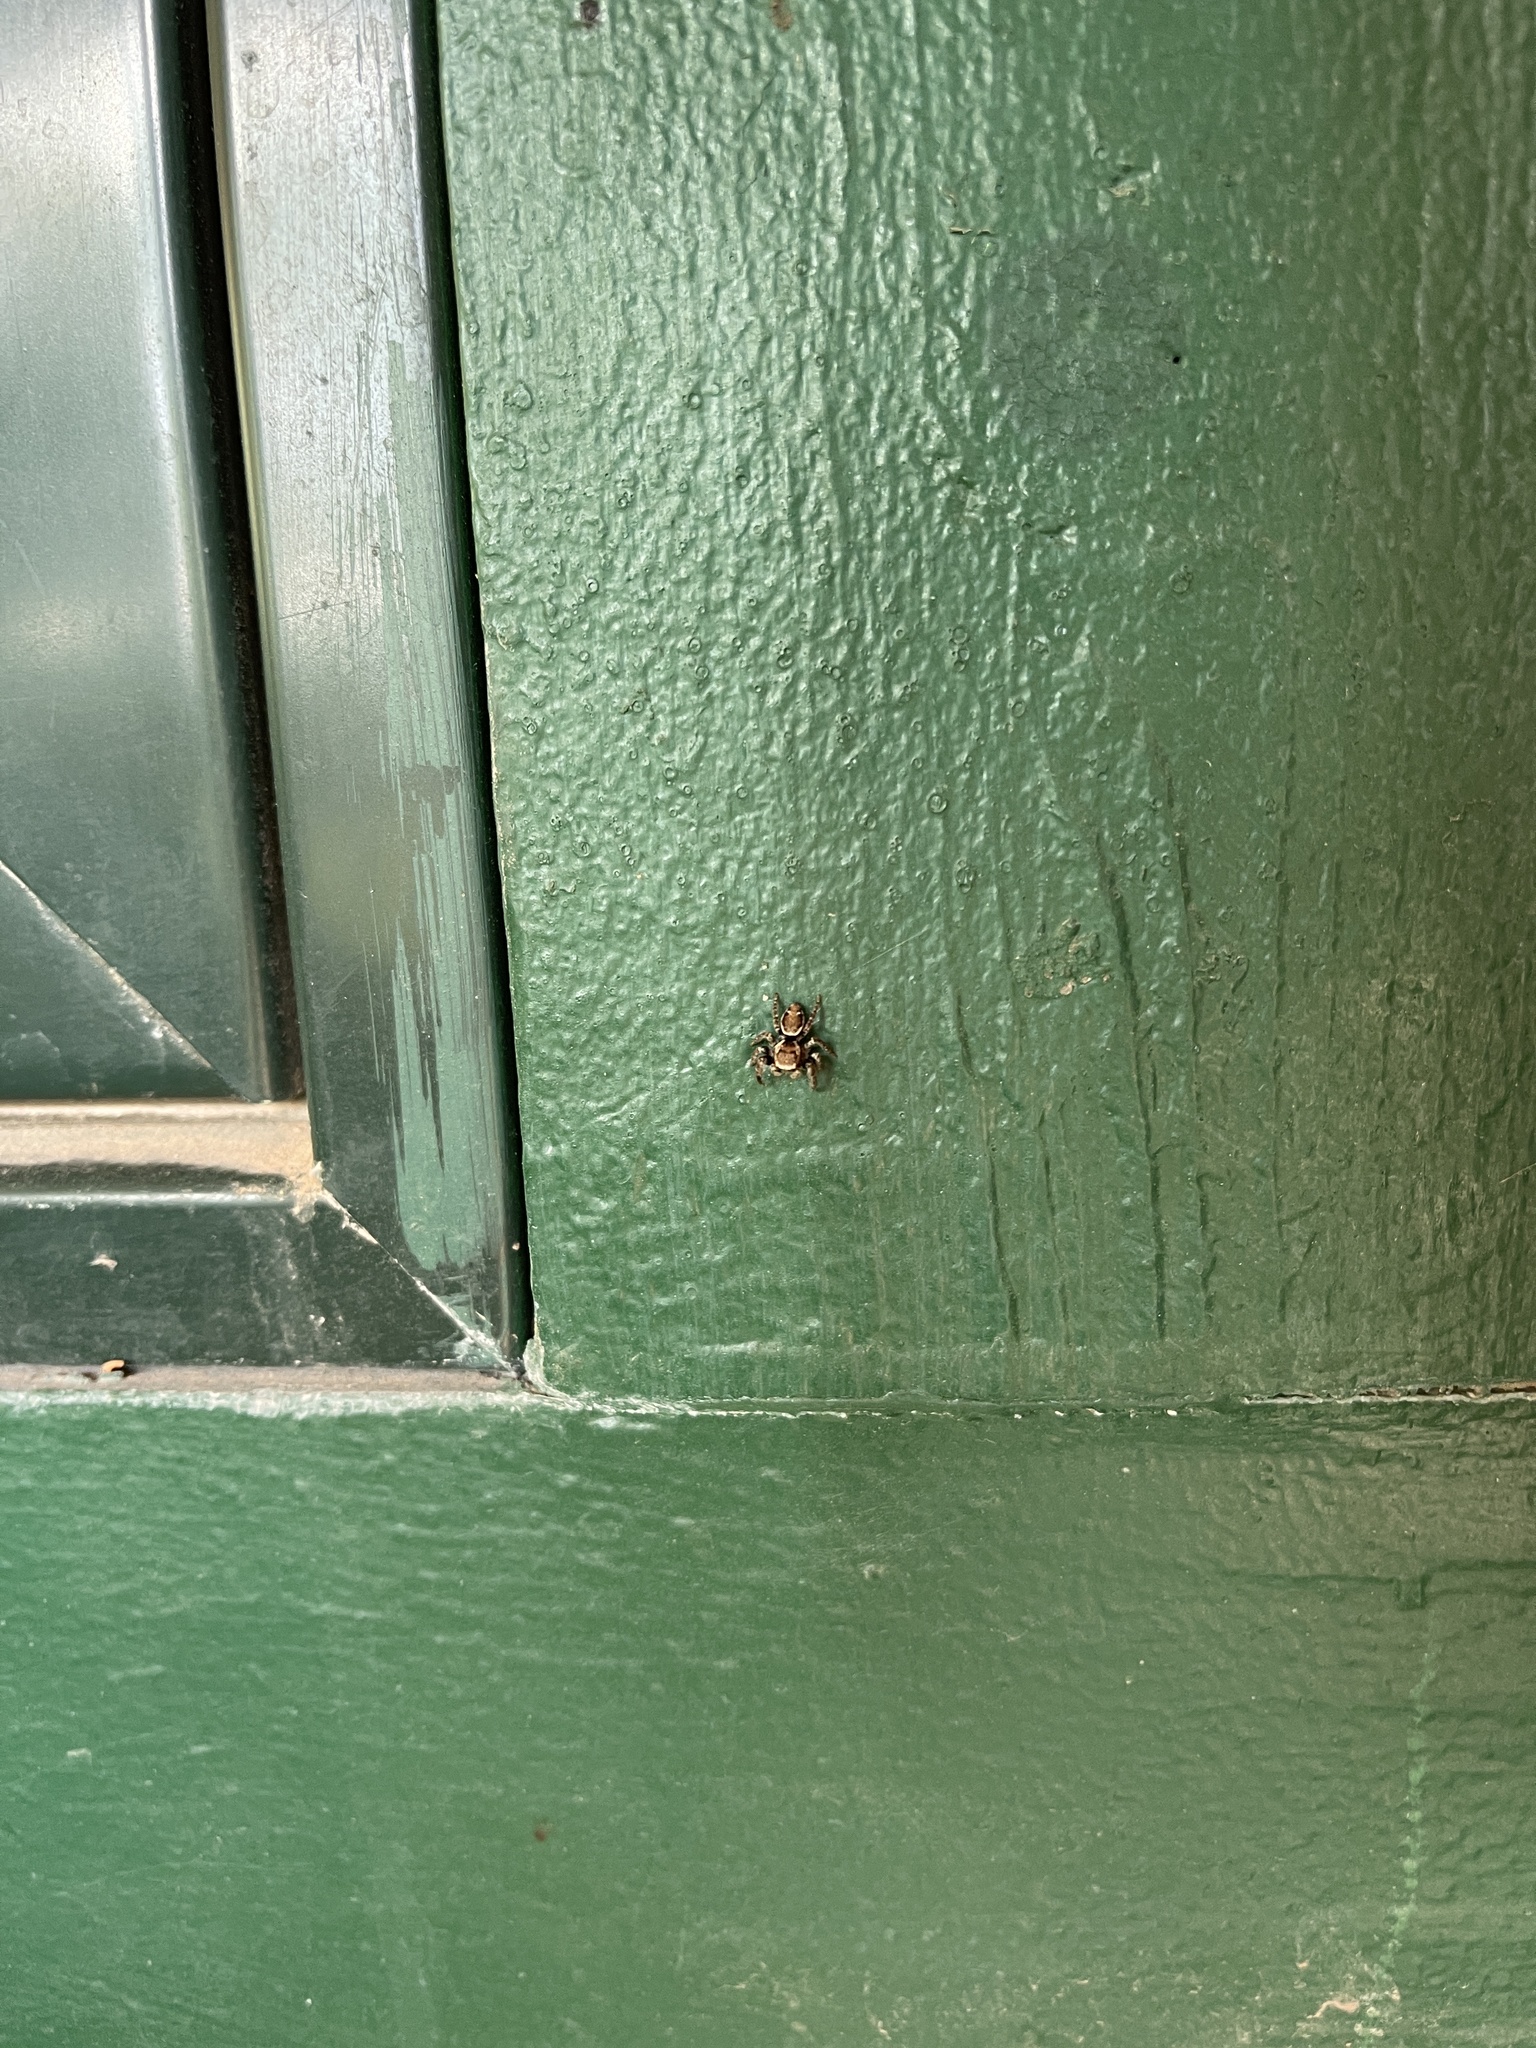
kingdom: Animalia
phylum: Arthropoda
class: Arachnida
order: Araneae
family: Salticidae
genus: Evarcha
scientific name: Evarcha proszynskii
